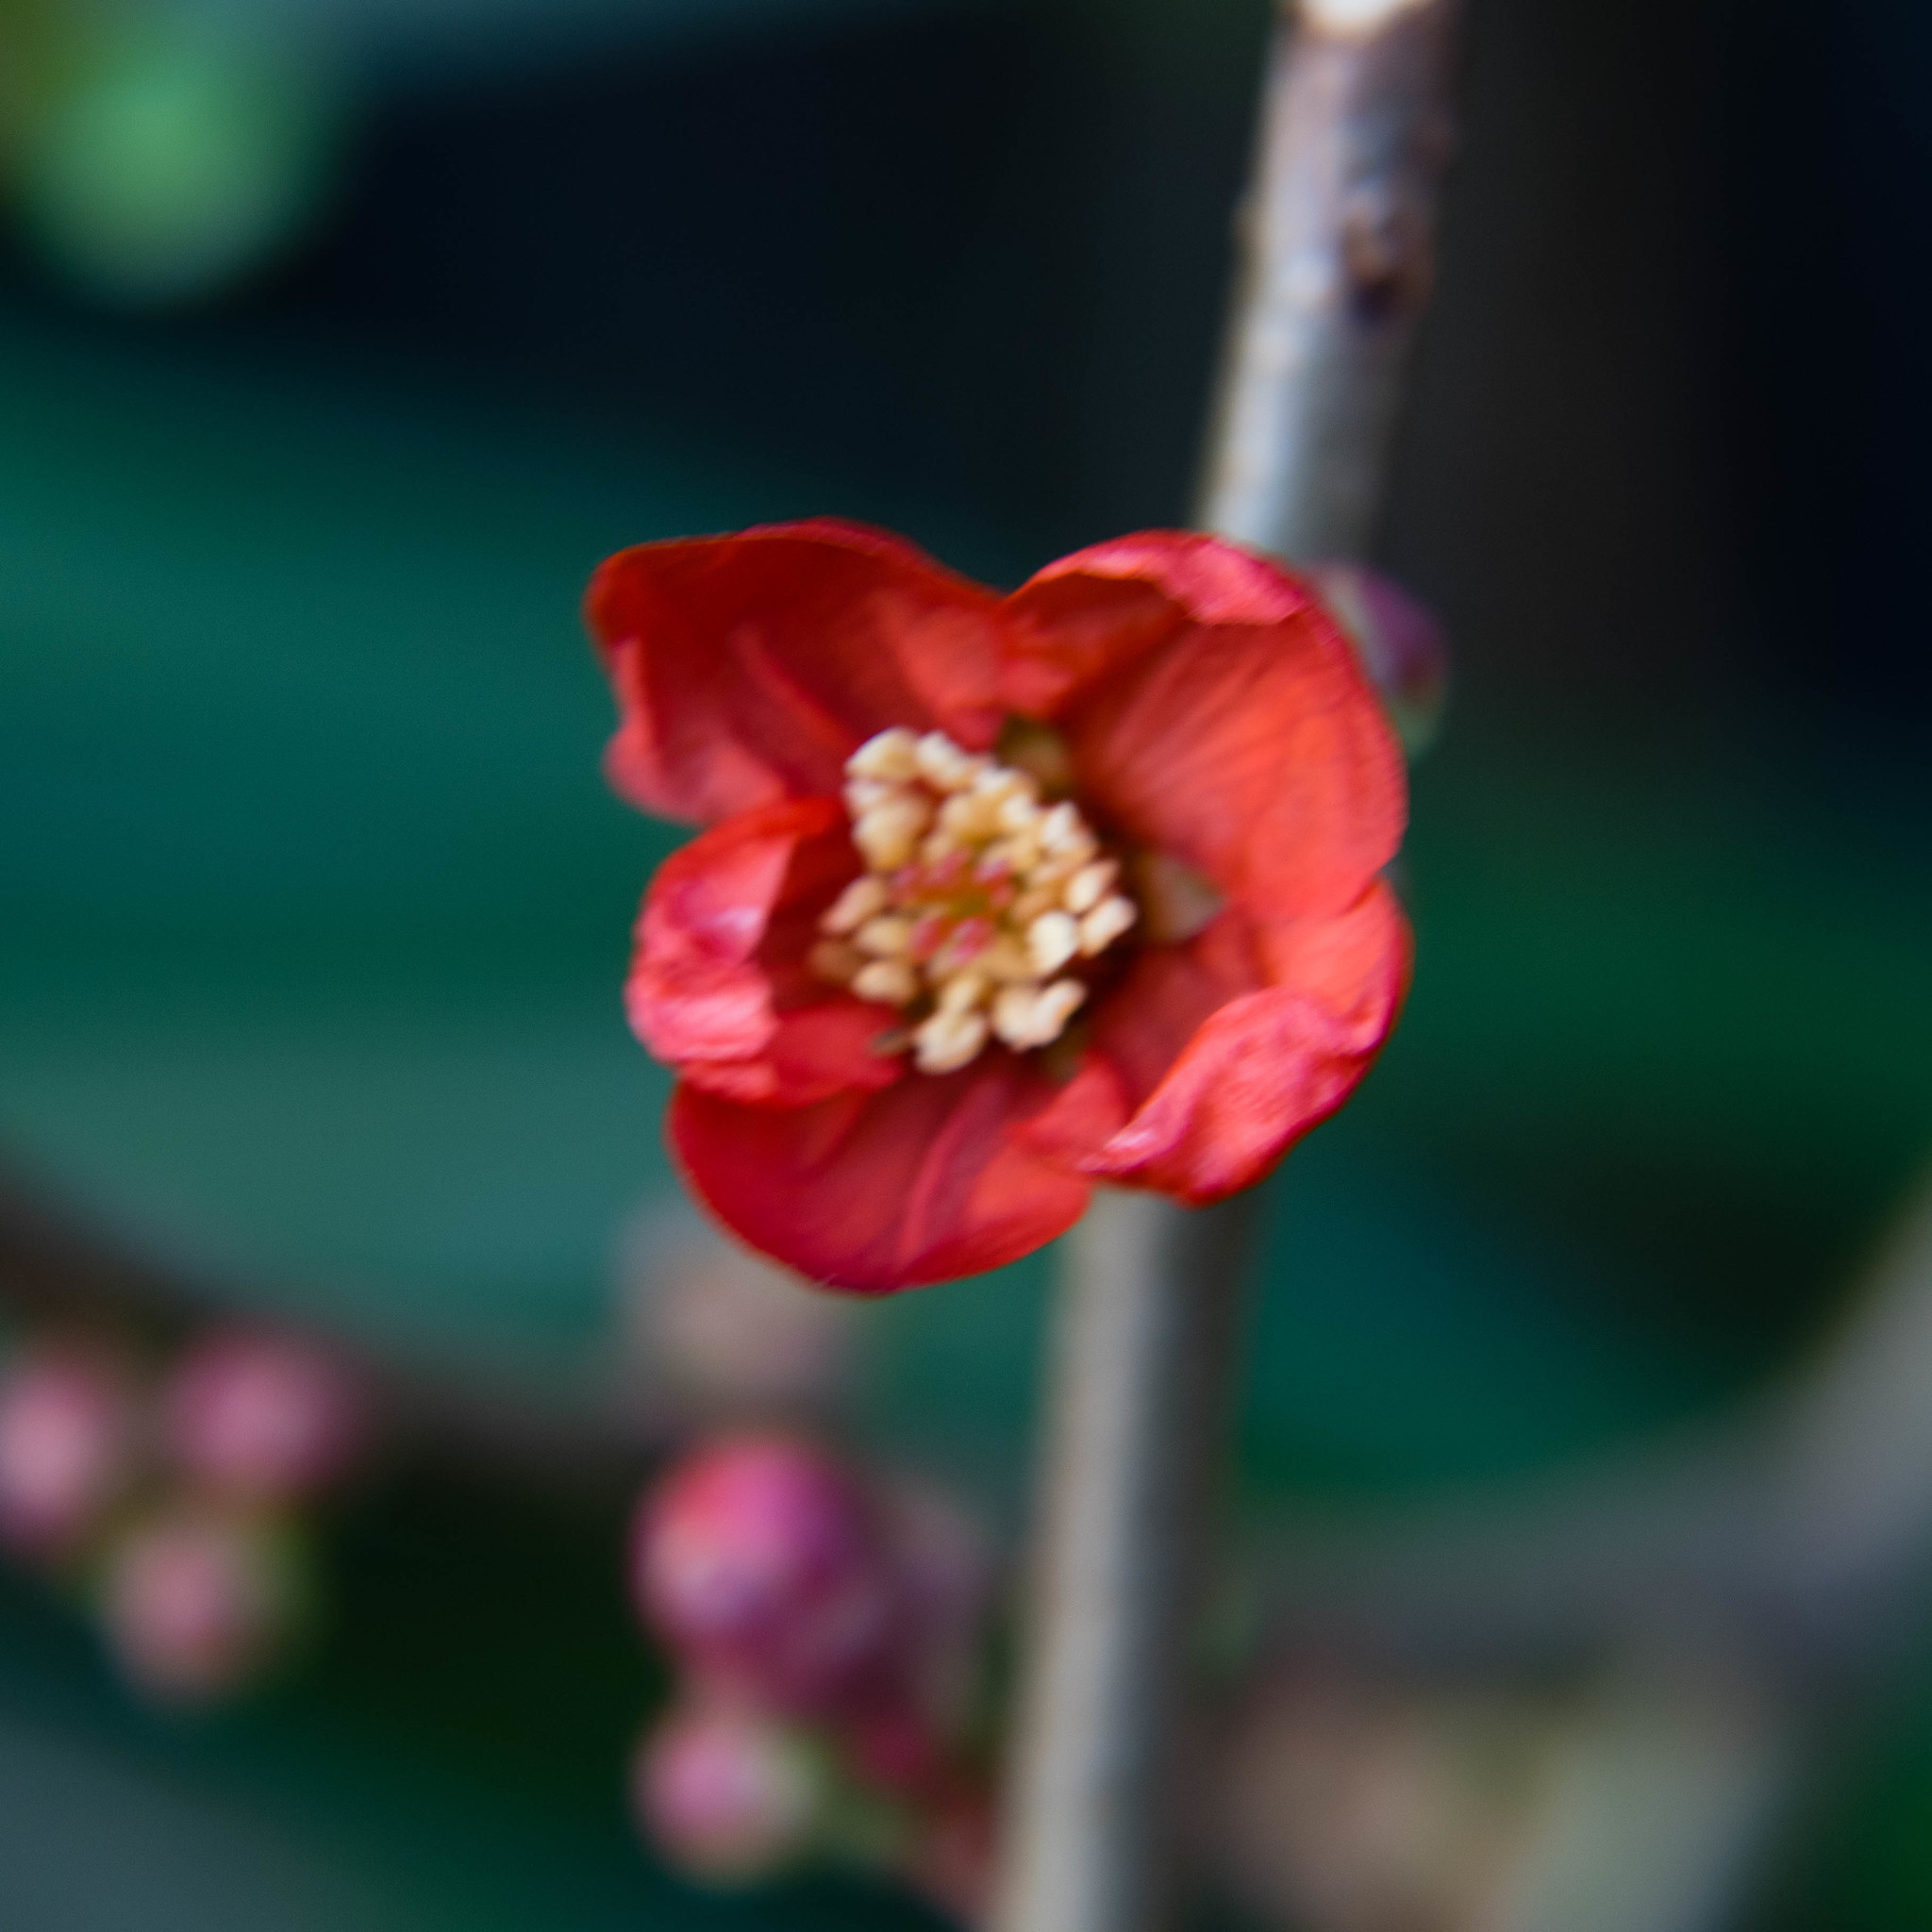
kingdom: Plantae
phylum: Tracheophyta
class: Magnoliopsida
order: Rosales
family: Rosaceae
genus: Chaenomeles
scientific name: Chaenomeles speciosa
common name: Japanese quince
